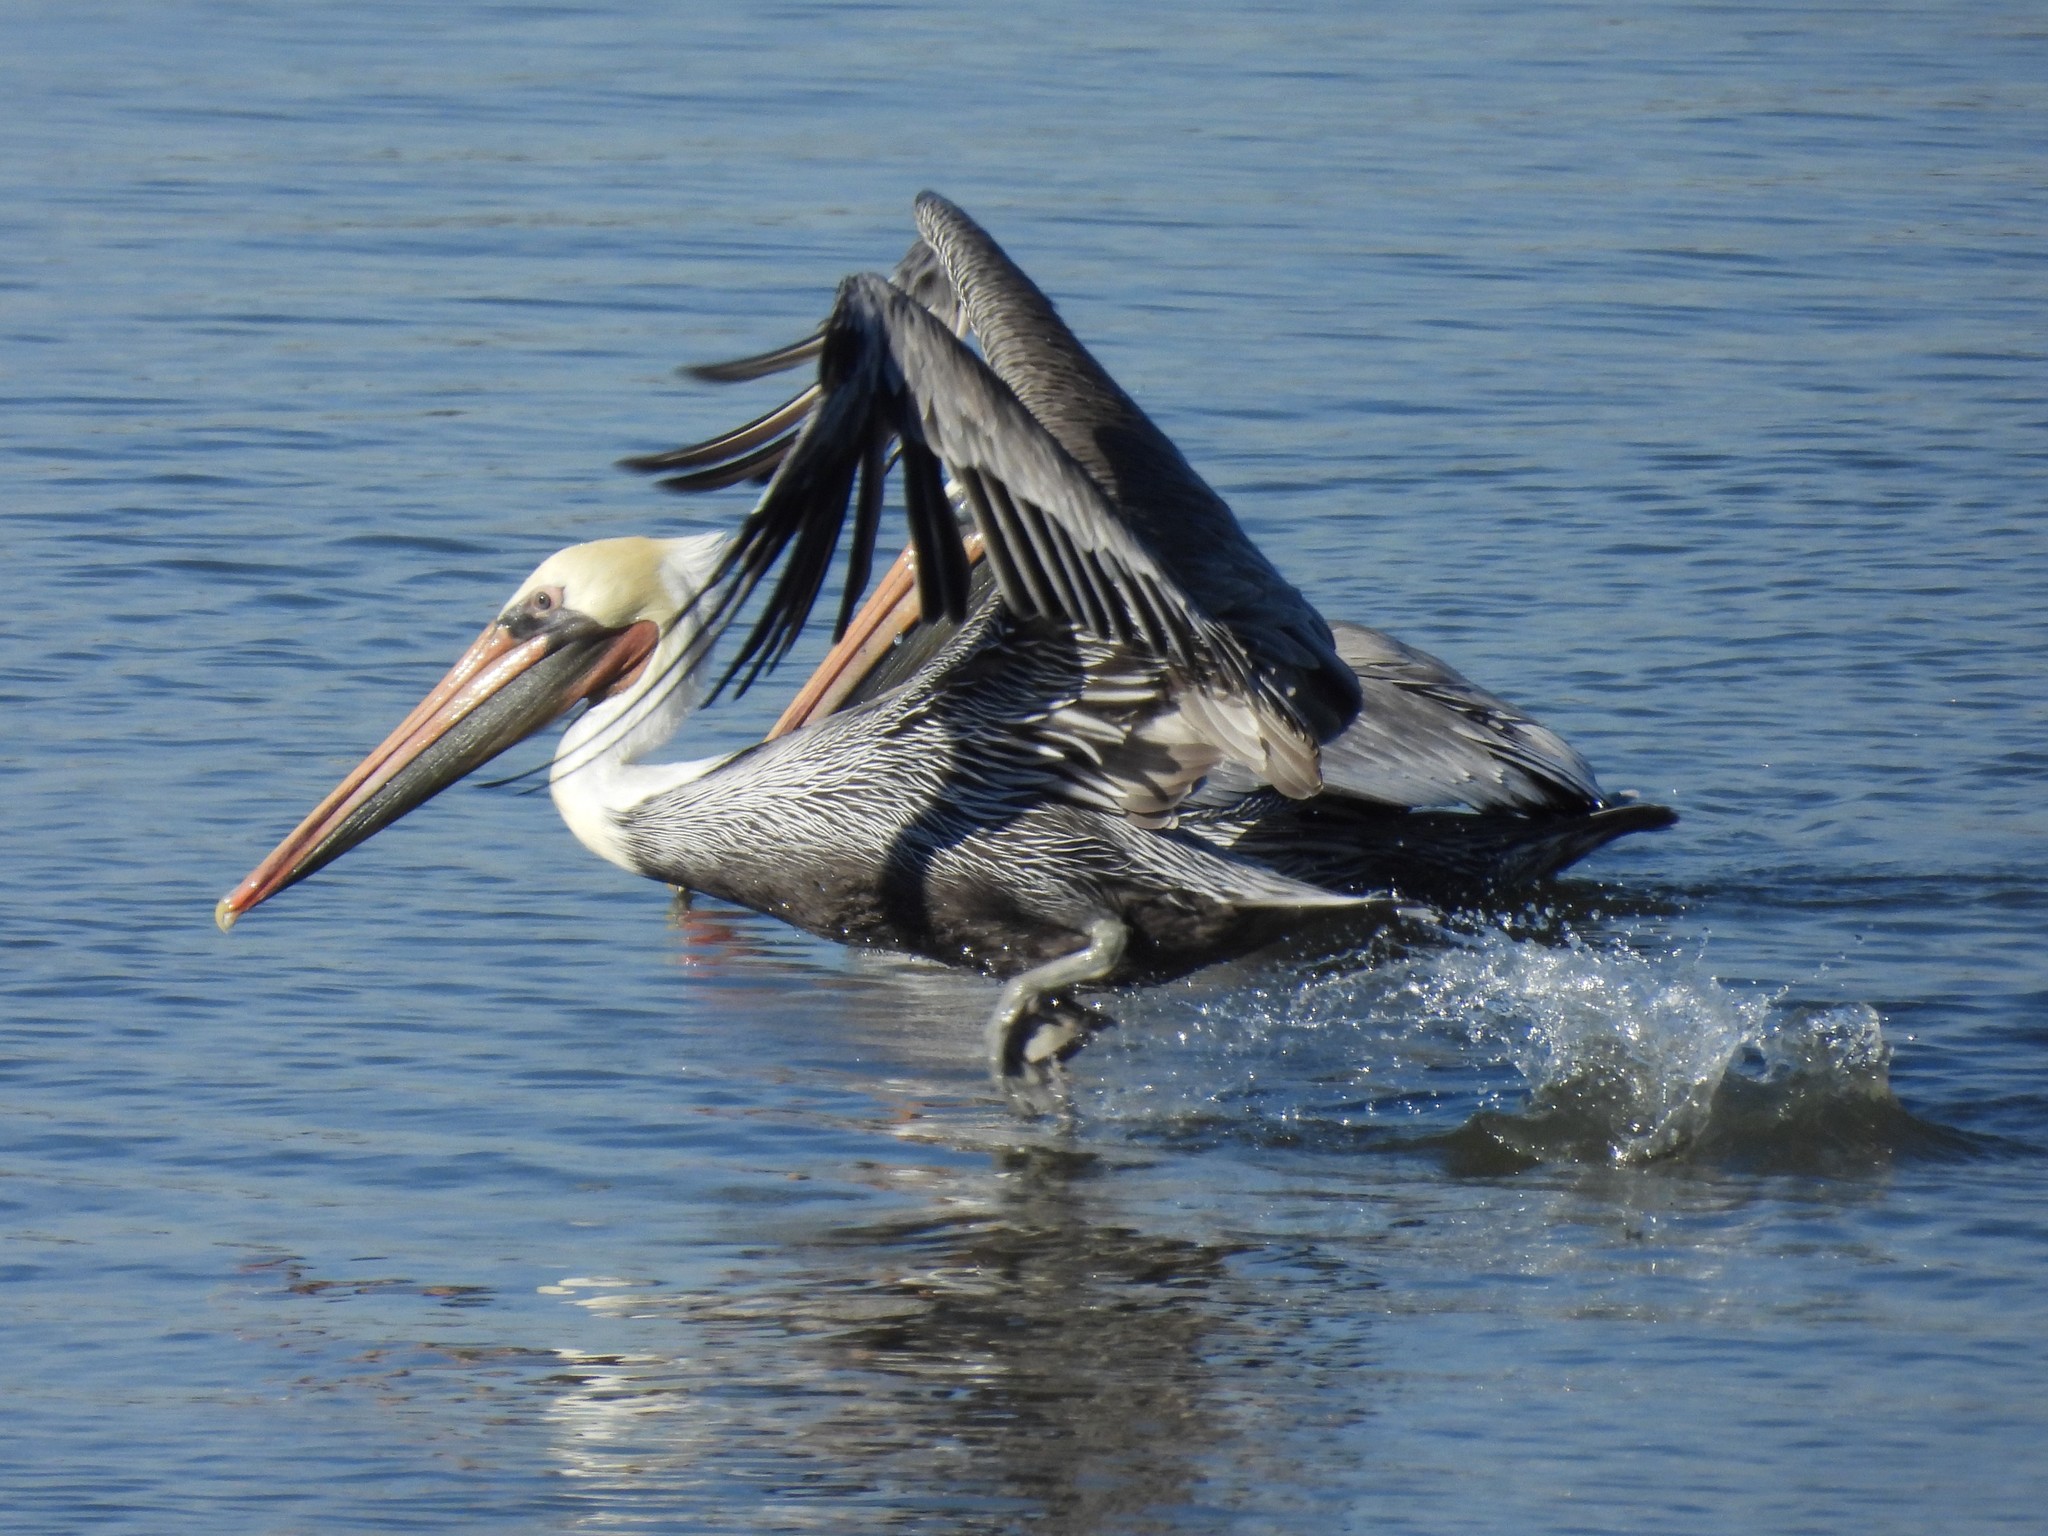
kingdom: Animalia
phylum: Chordata
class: Aves
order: Pelecaniformes
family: Pelecanidae
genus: Pelecanus
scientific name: Pelecanus occidentalis
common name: Brown pelican
